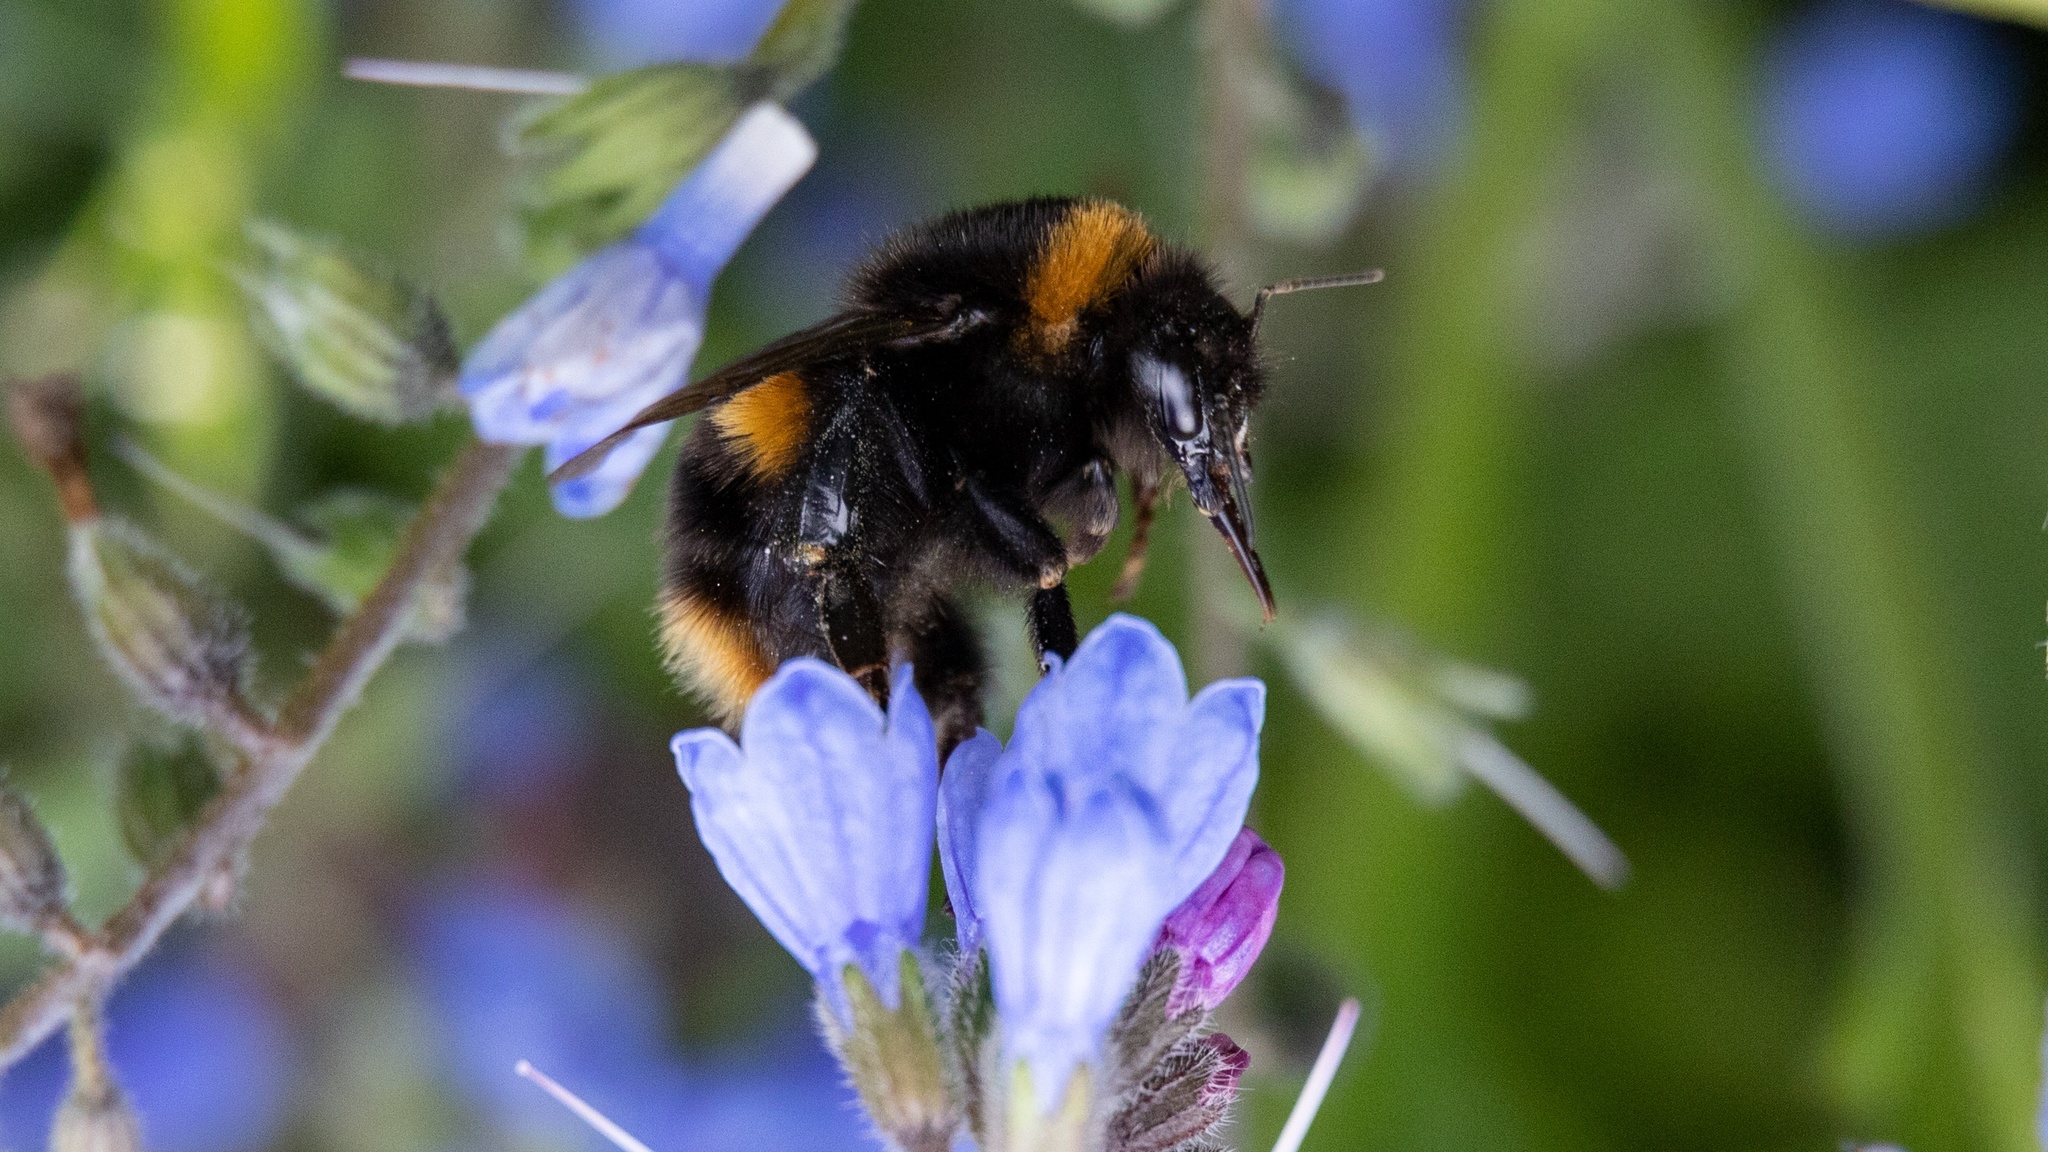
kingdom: Animalia
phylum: Arthropoda
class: Insecta
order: Hymenoptera
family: Apidae
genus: Bombus
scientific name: Bombus terrestris
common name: Buff-tailed bumblebee
